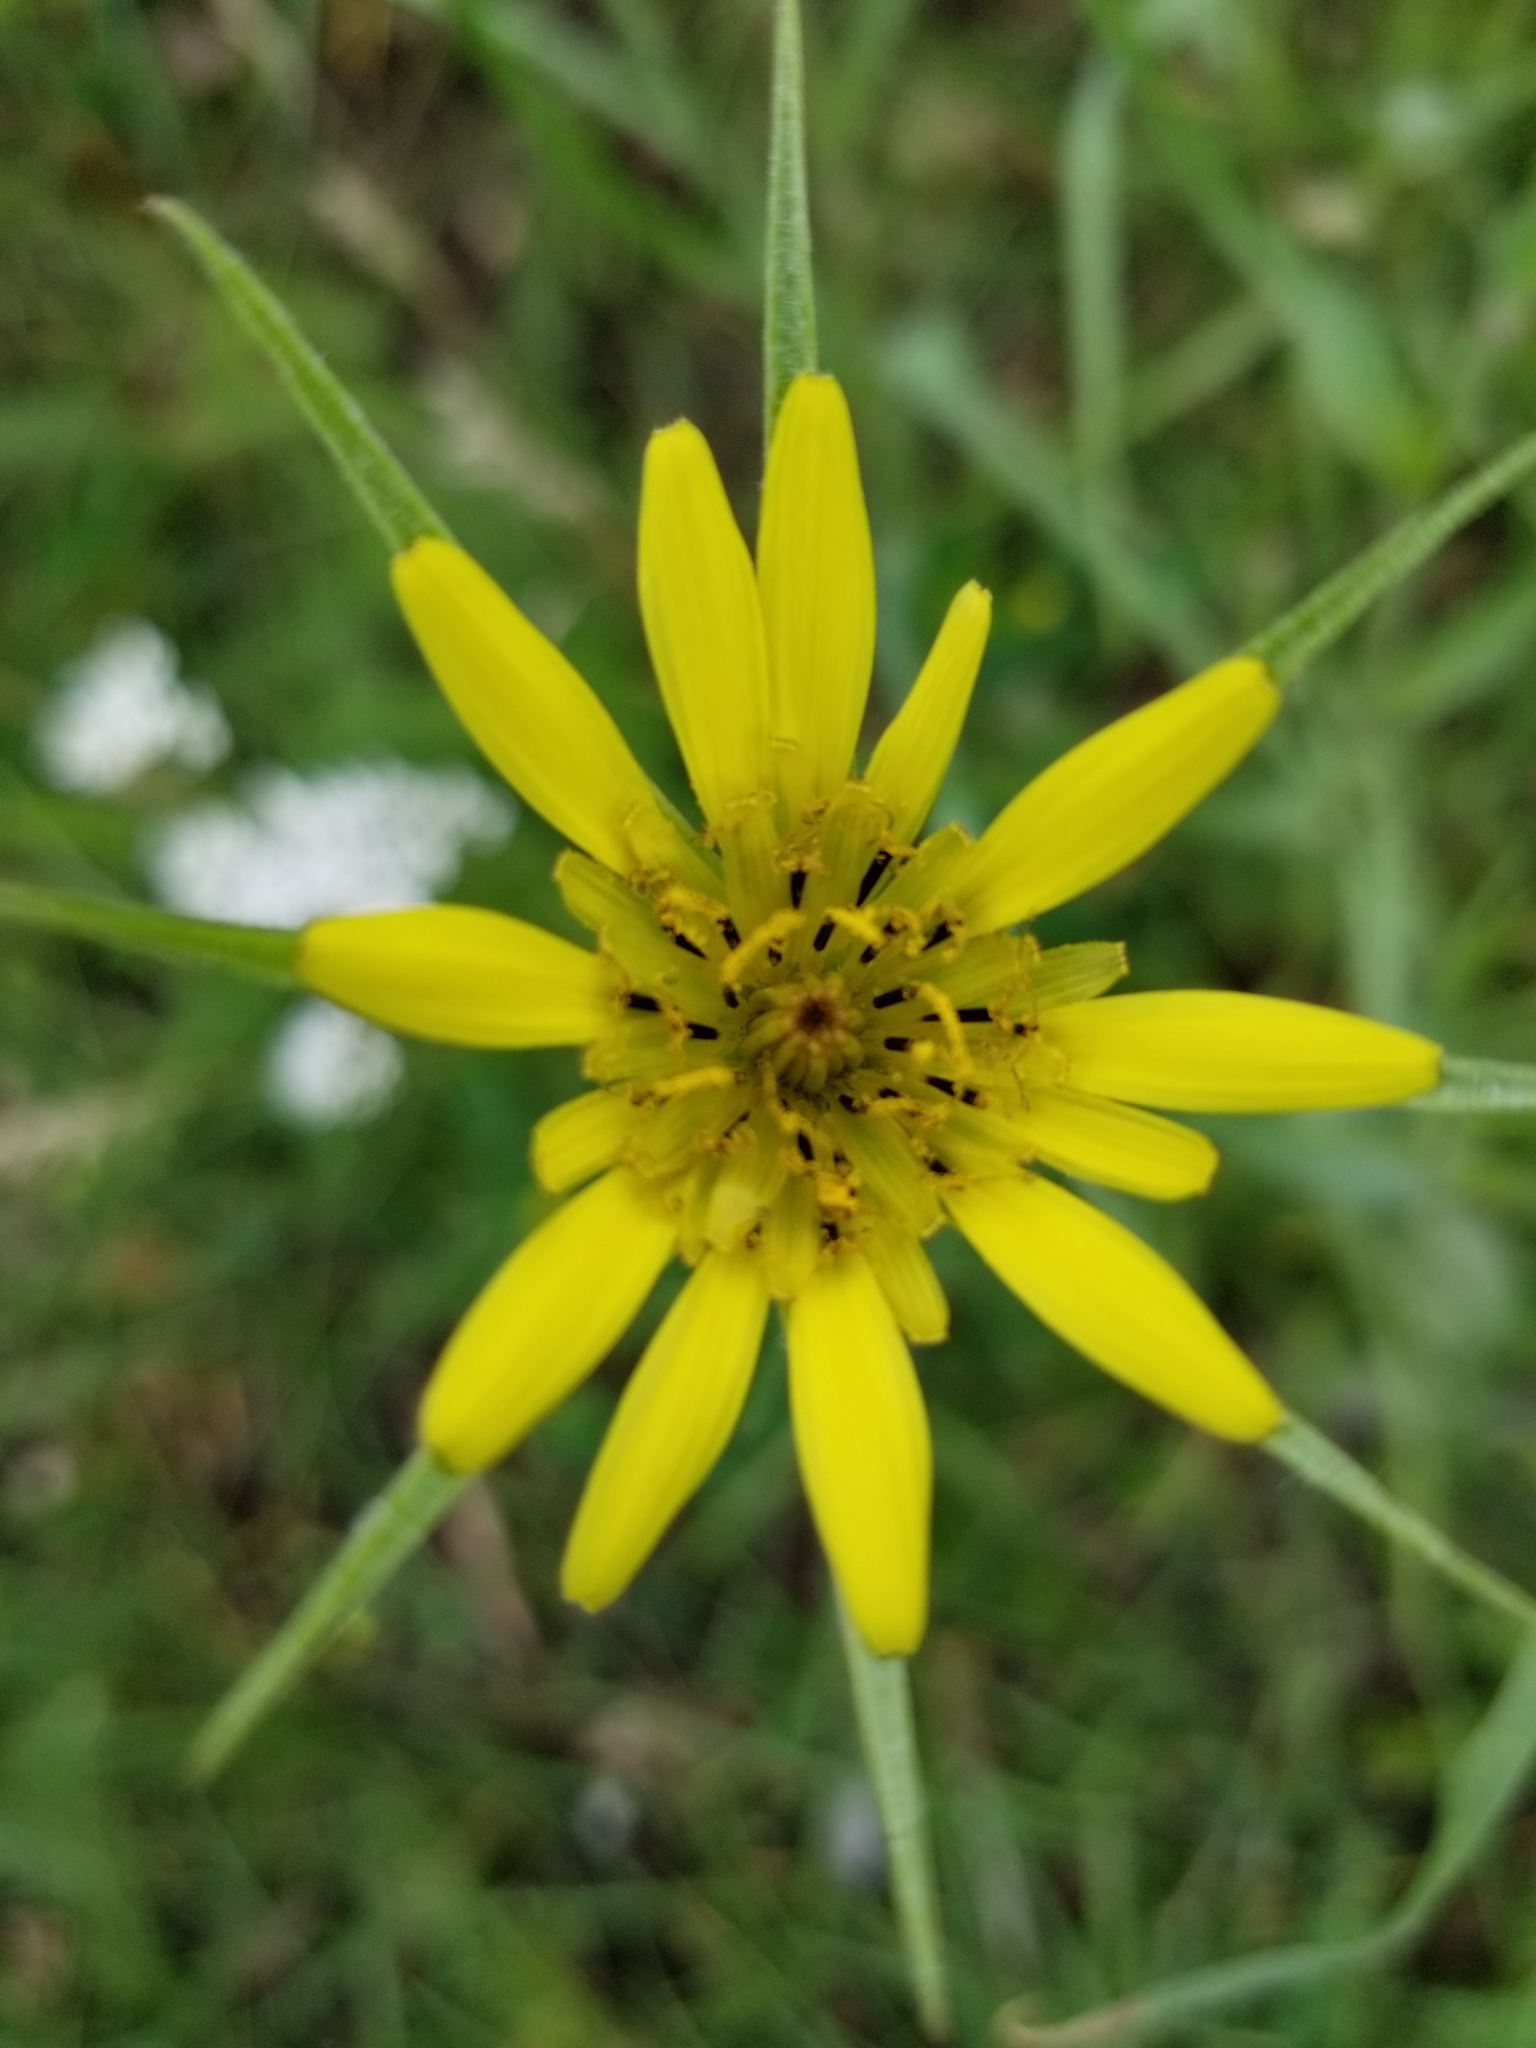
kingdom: Plantae
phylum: Tracheophyta
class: Magnoliopsida
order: Asterales
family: Asteraceae
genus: Tragopogon
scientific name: Tragopogon dubius
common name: Yellow salsify
